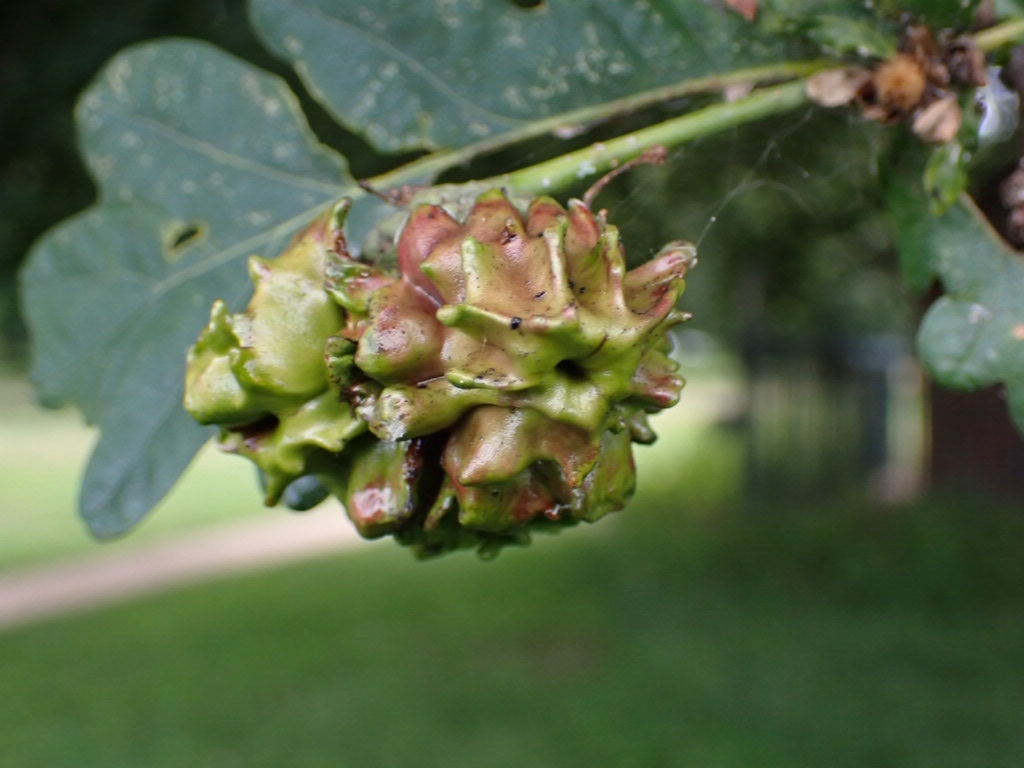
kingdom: Animalia
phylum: Arthropoda
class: Insecta
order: Hymenoptera
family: Cynipidae
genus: Andricus
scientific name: Andricus quercuscalicis
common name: Knopper gall
